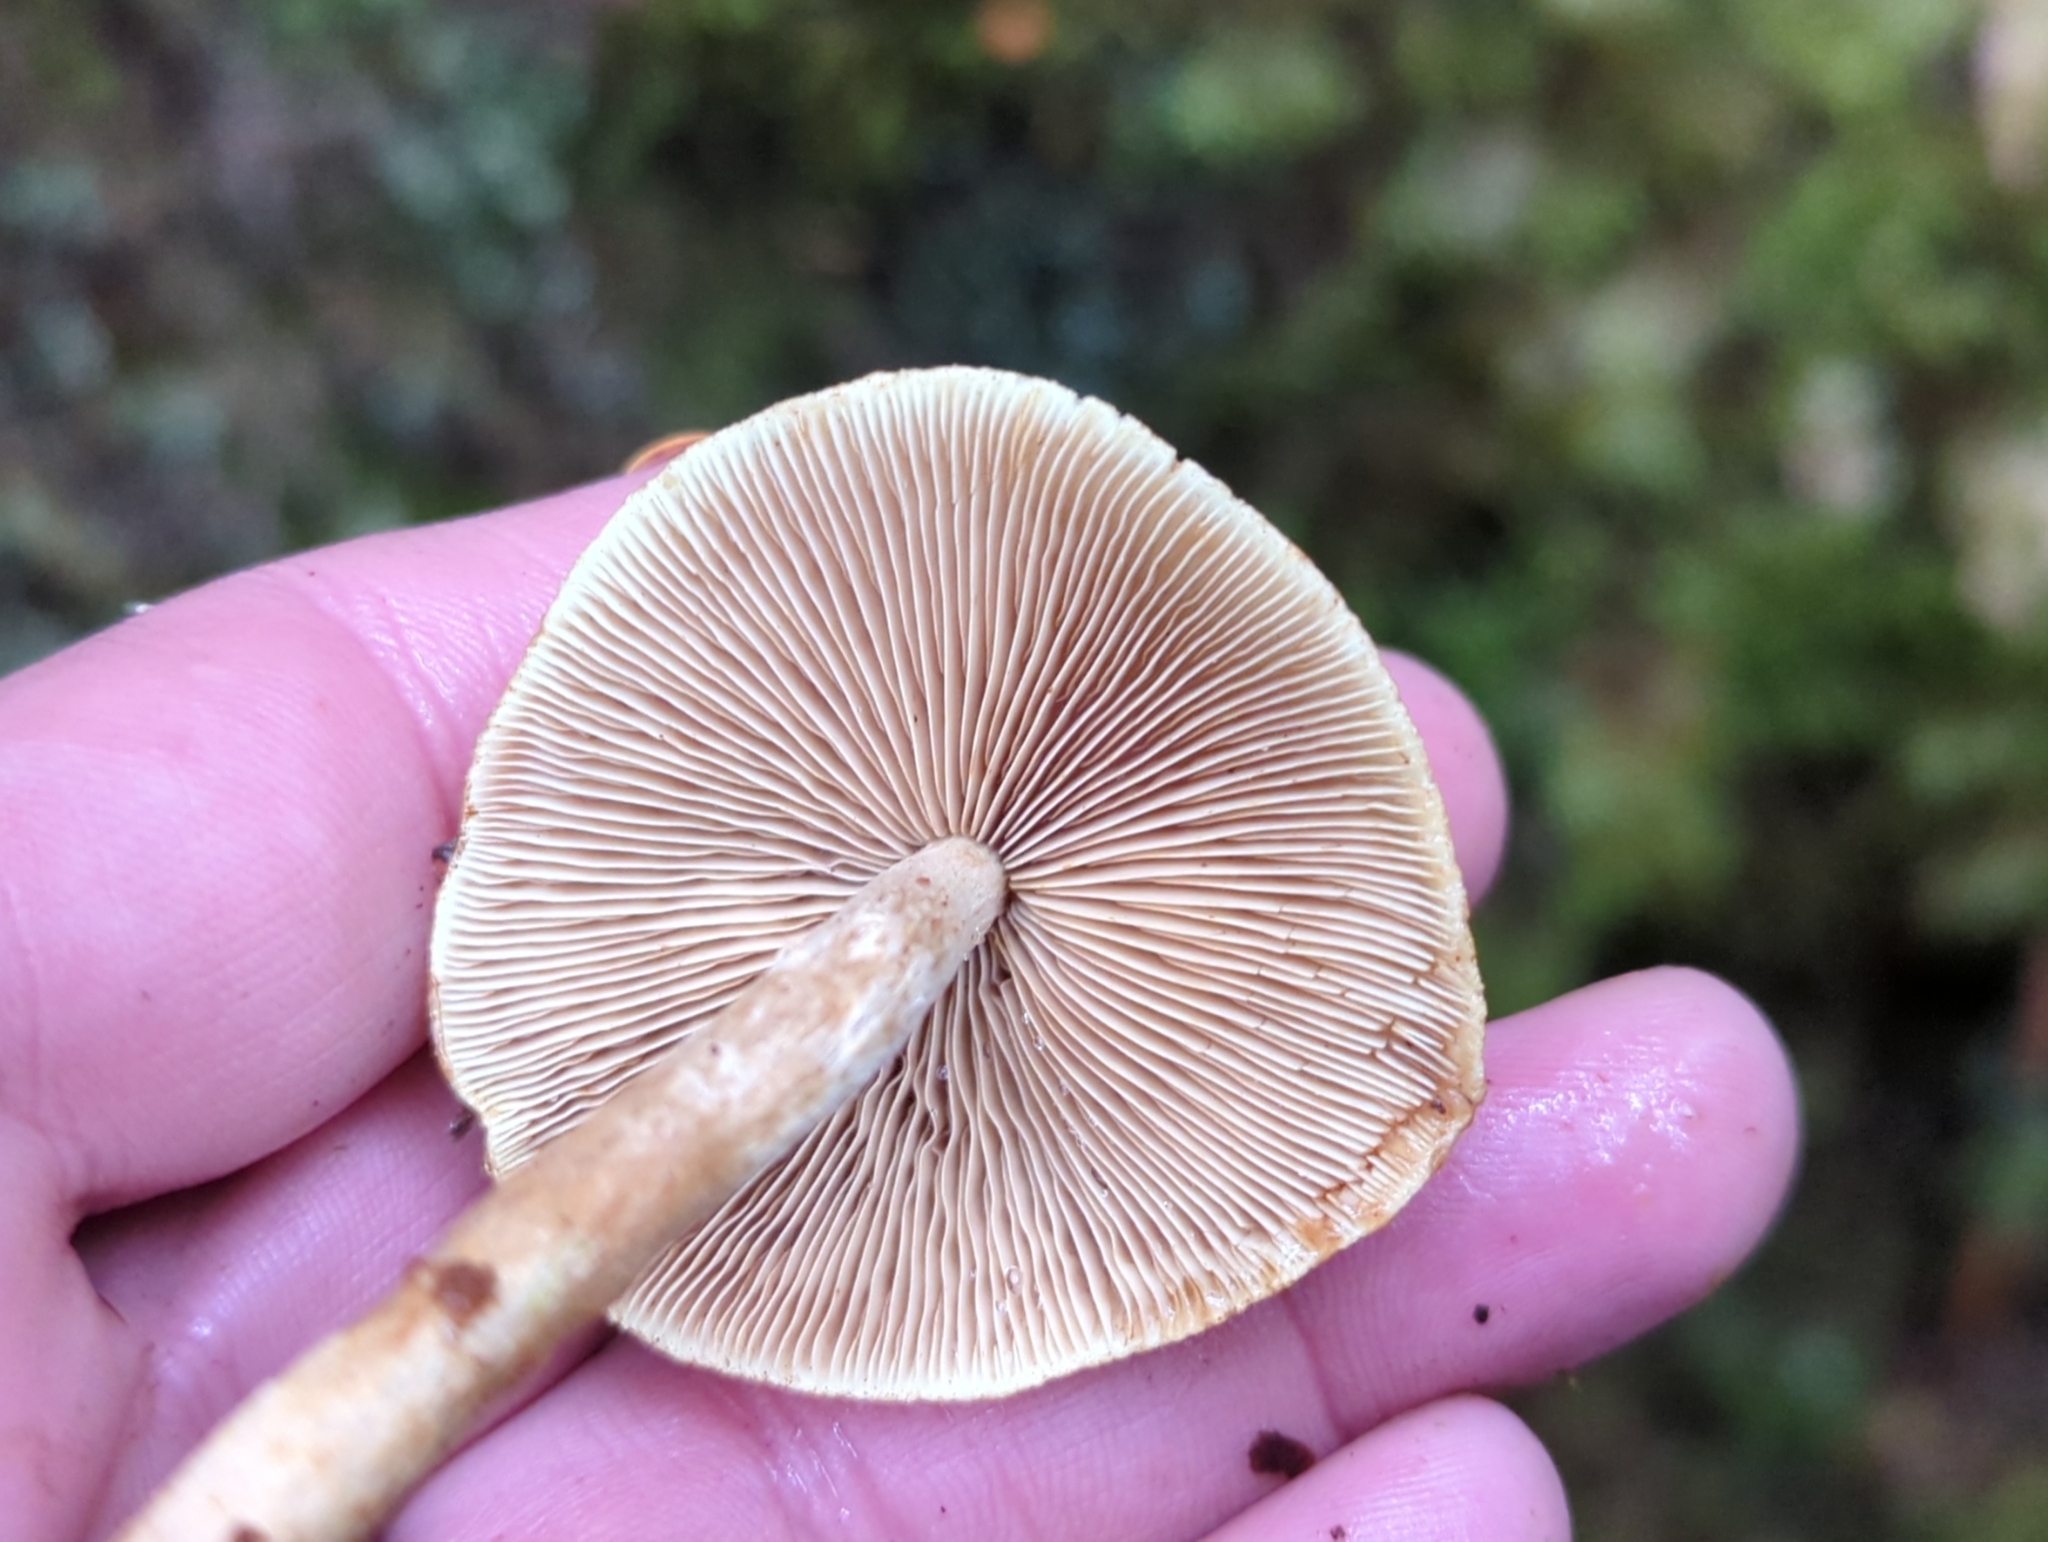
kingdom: Fungi
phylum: Basidiomycota
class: Agaricomycetes
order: Agaricales
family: Strophariaceae
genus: Hypholoma
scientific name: Hypholoma capnoides
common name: Conifer tuft
